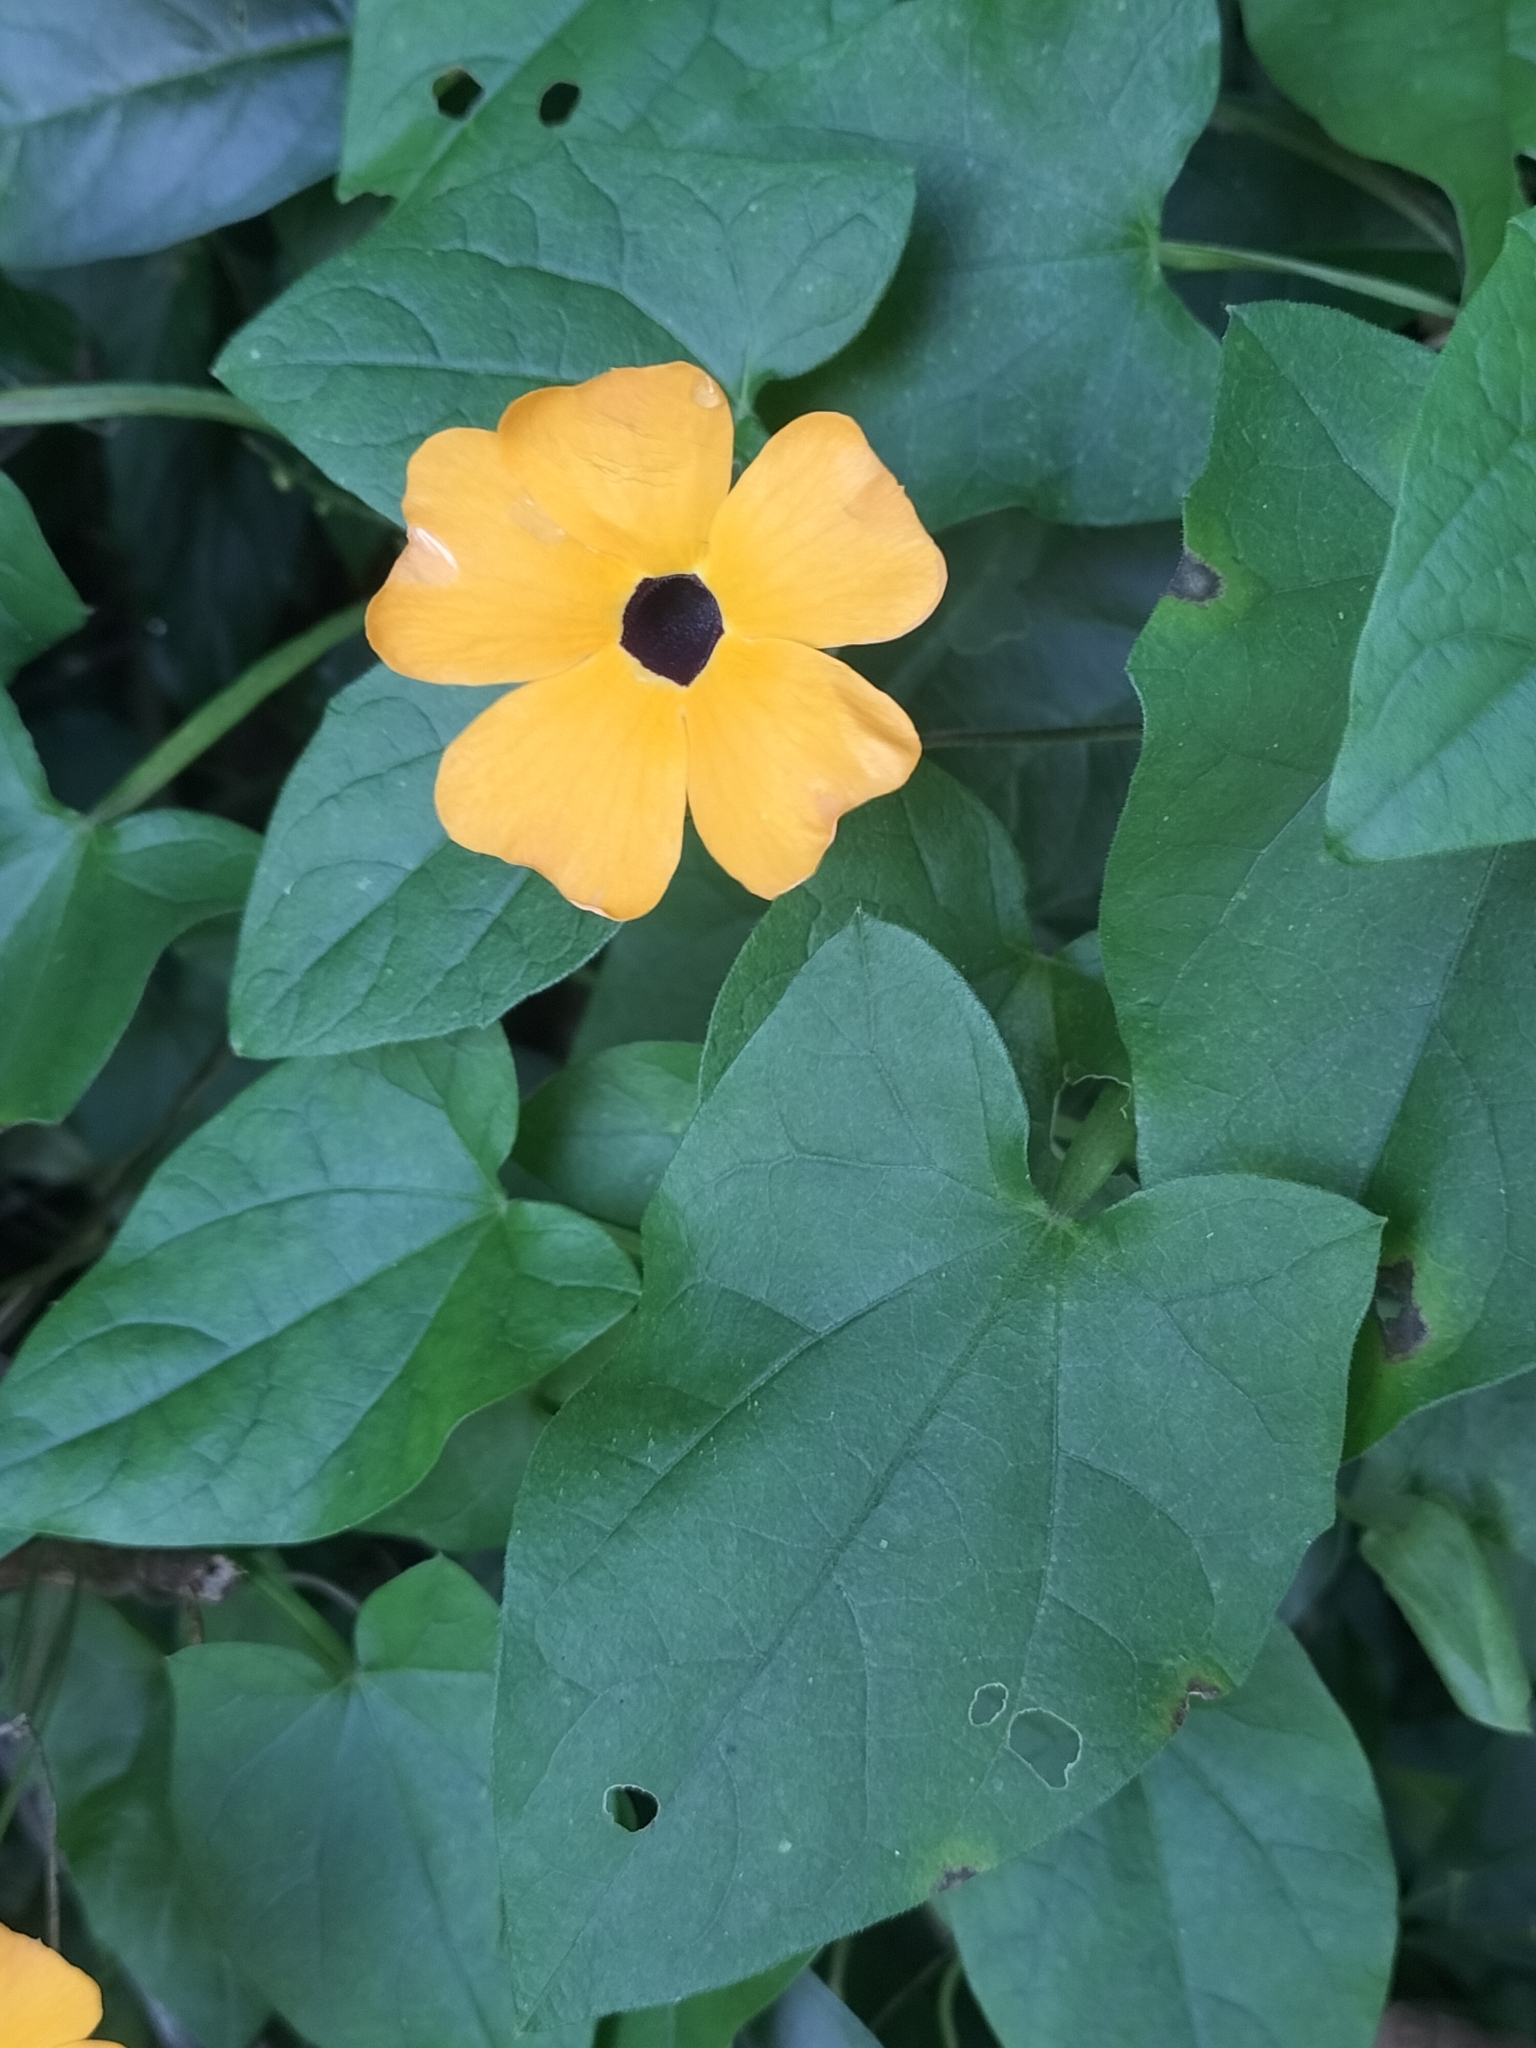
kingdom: Plantae
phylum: Tracheophyta
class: Magnoliopsida
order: Lamiales
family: Acanthaceae
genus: Thunbergia
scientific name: Thunbergia alata
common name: Blackeyed susan vine
